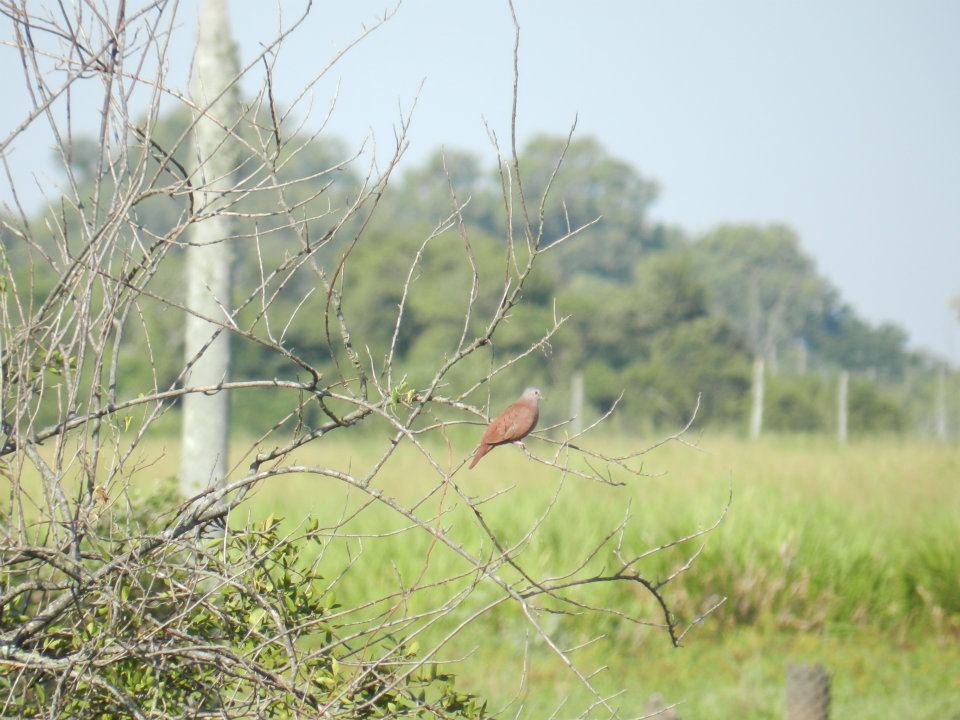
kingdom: Animalia
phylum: Chordata
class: Aves
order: Columbiformes
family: Columbidae
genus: Columbina
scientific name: Columbina talpacoti
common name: Ruddy ground dove
